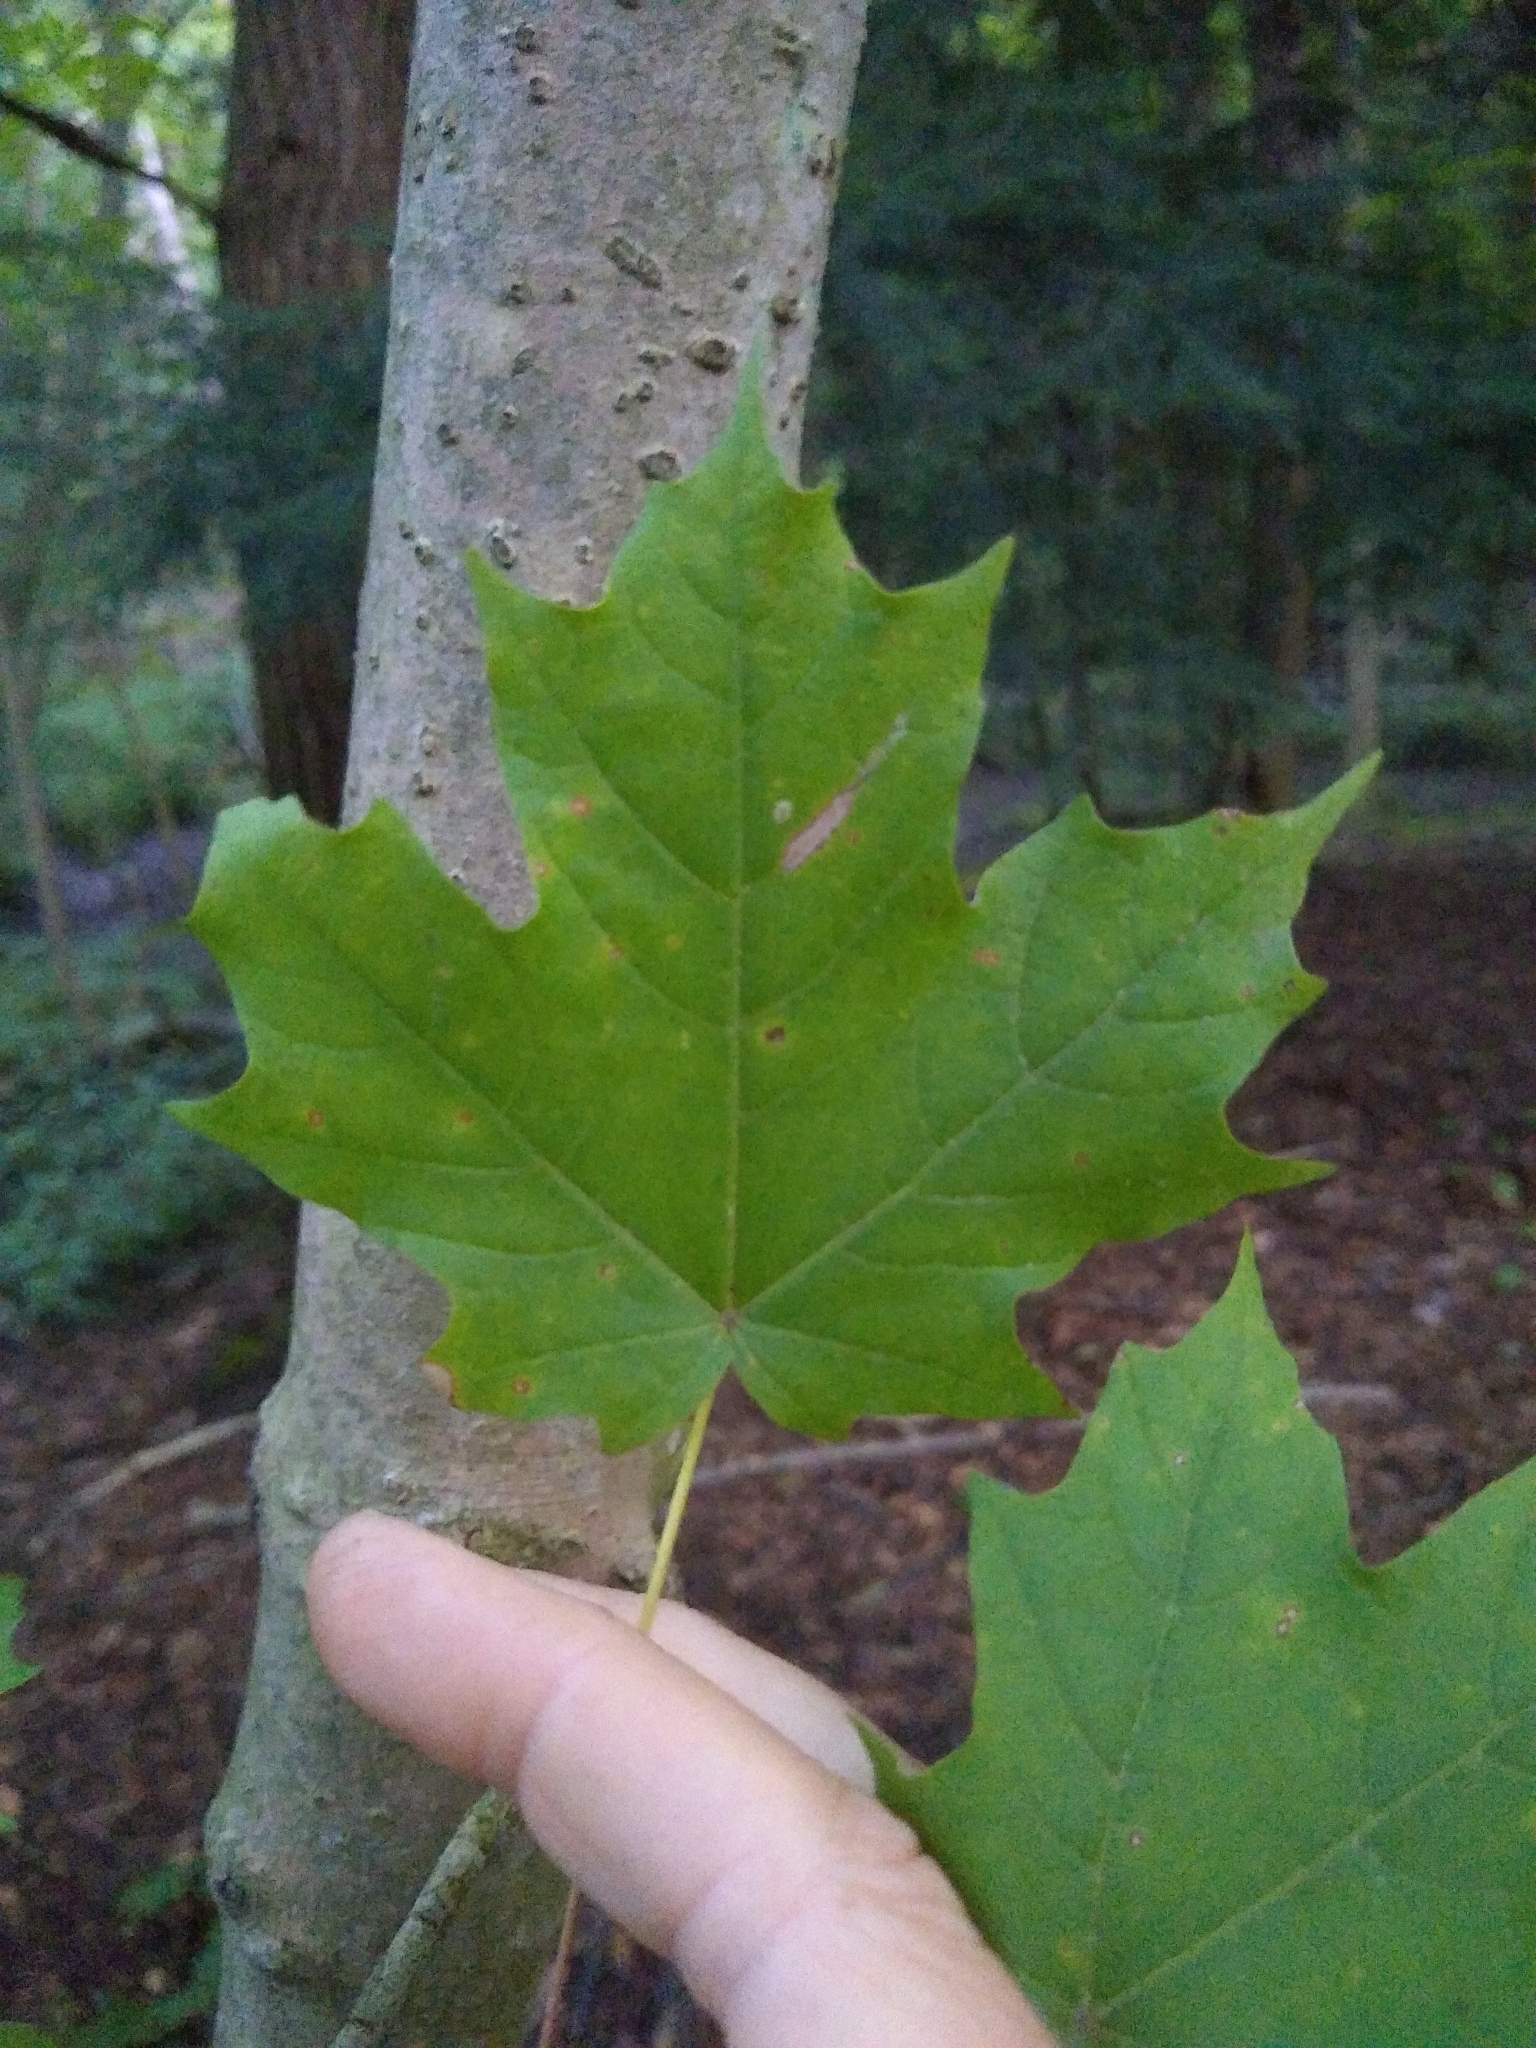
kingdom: Plantae
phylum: Tracheophyta
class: Magnoliopsida
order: Sapindales
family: Sapindaceae
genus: Acer
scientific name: Acer saccharum
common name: Sugar maple
